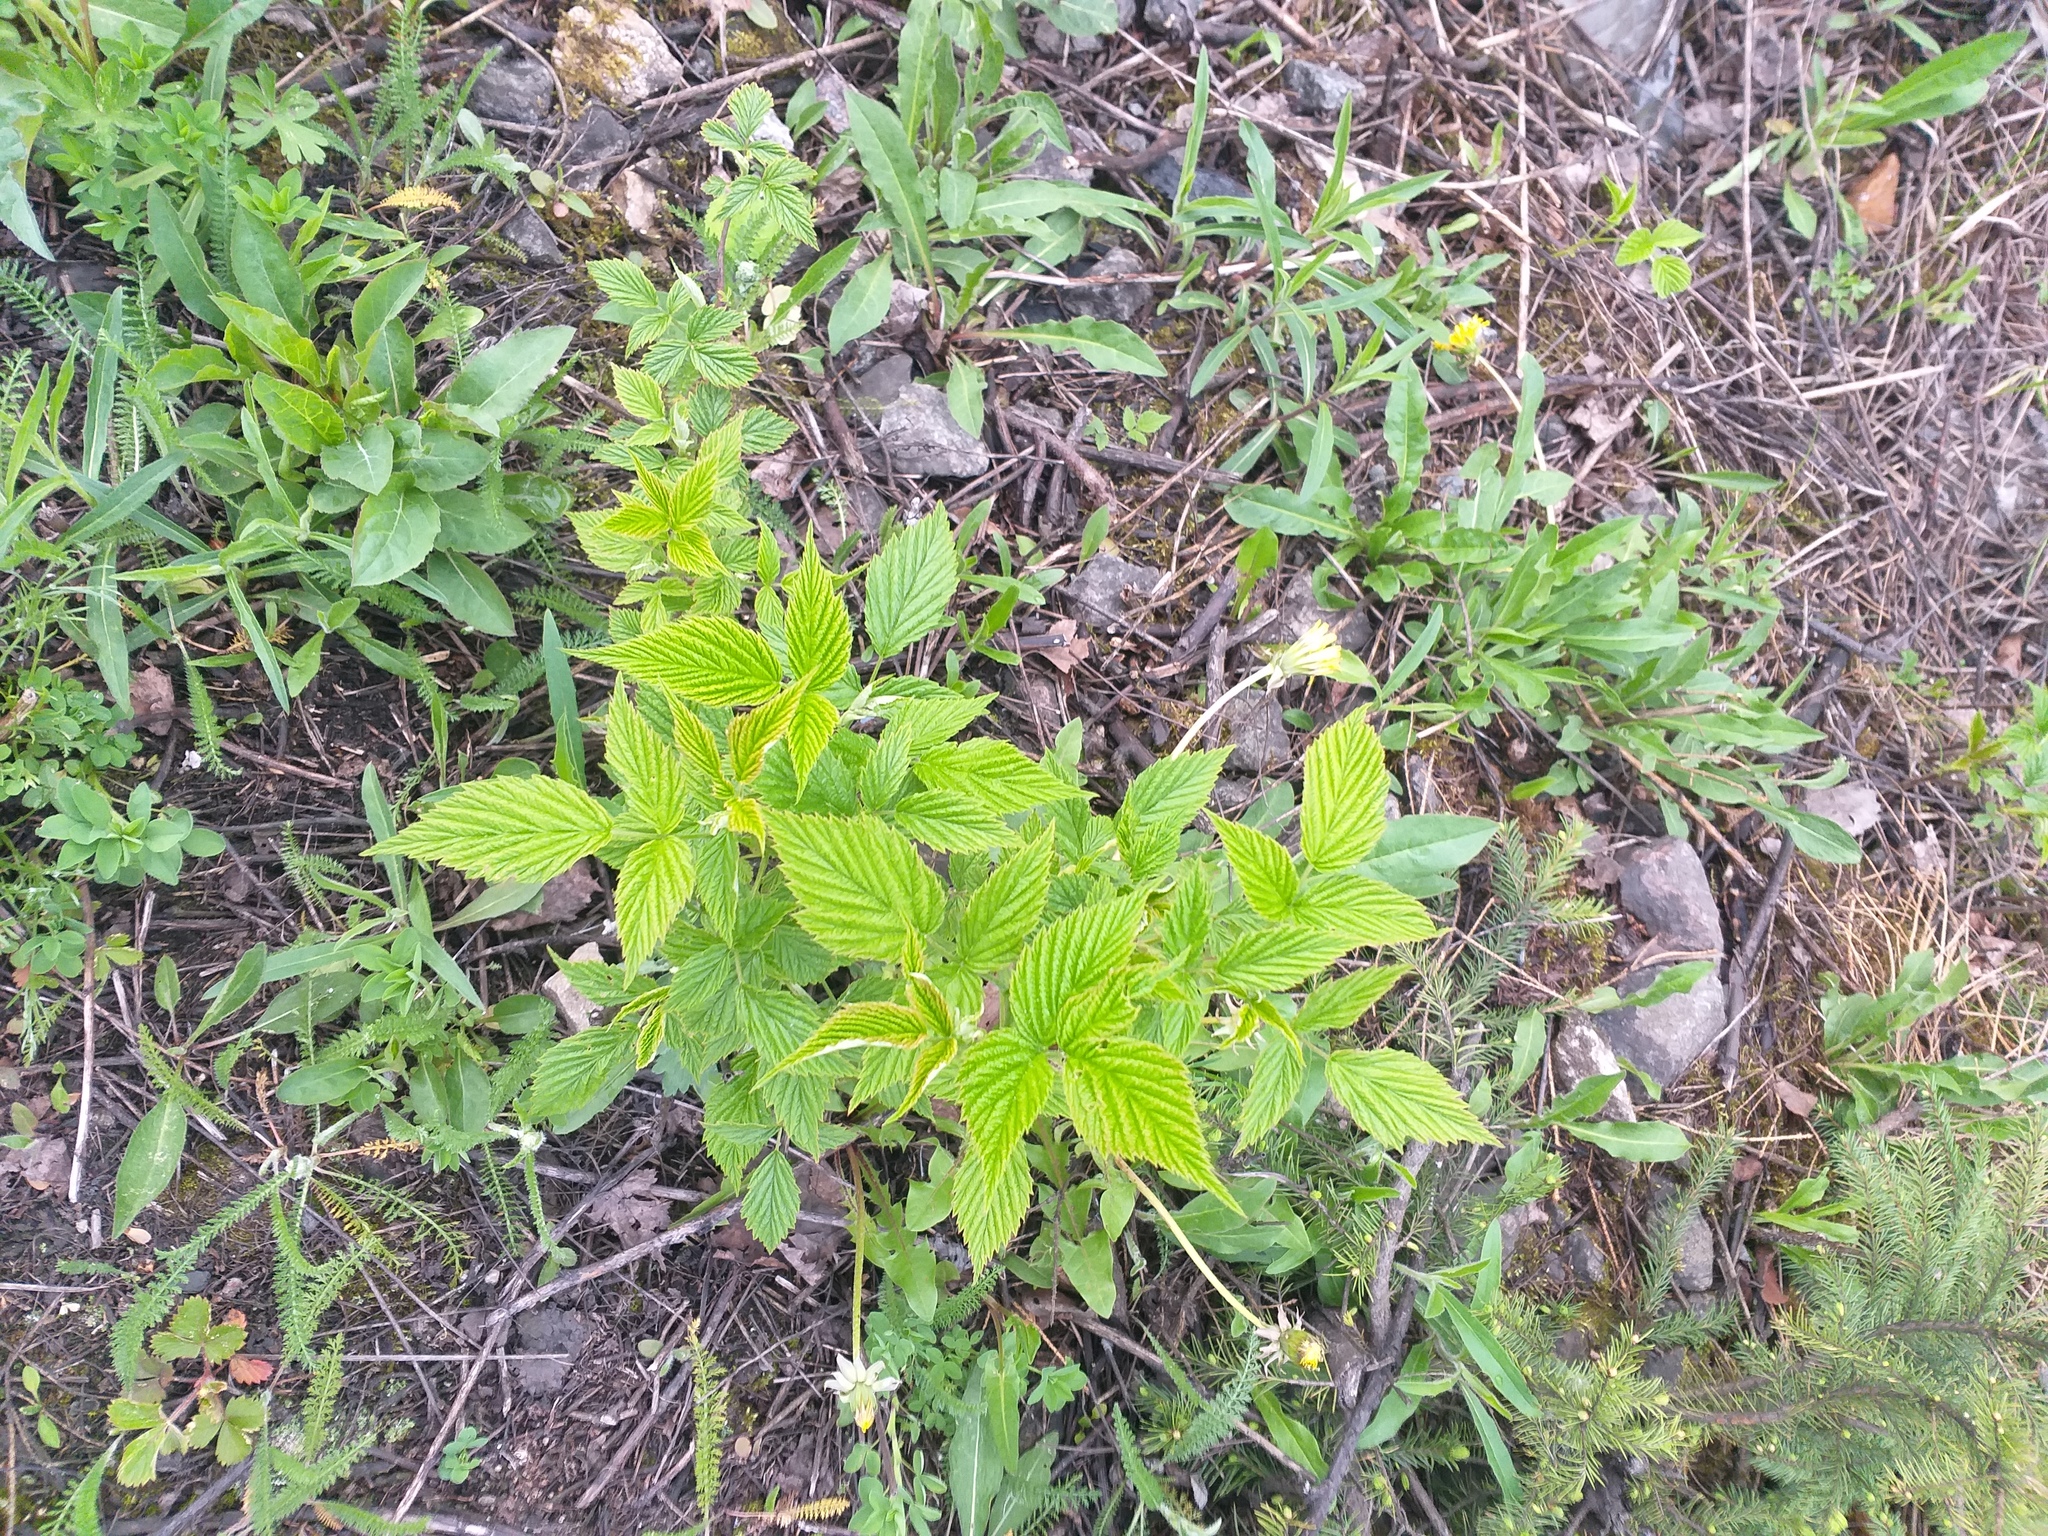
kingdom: Plantae
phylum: Tracheophyta
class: Magnoliopsida
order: Rosales
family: Rosaceae
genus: Rubus
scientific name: Rubus idaeus
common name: Raspberry
